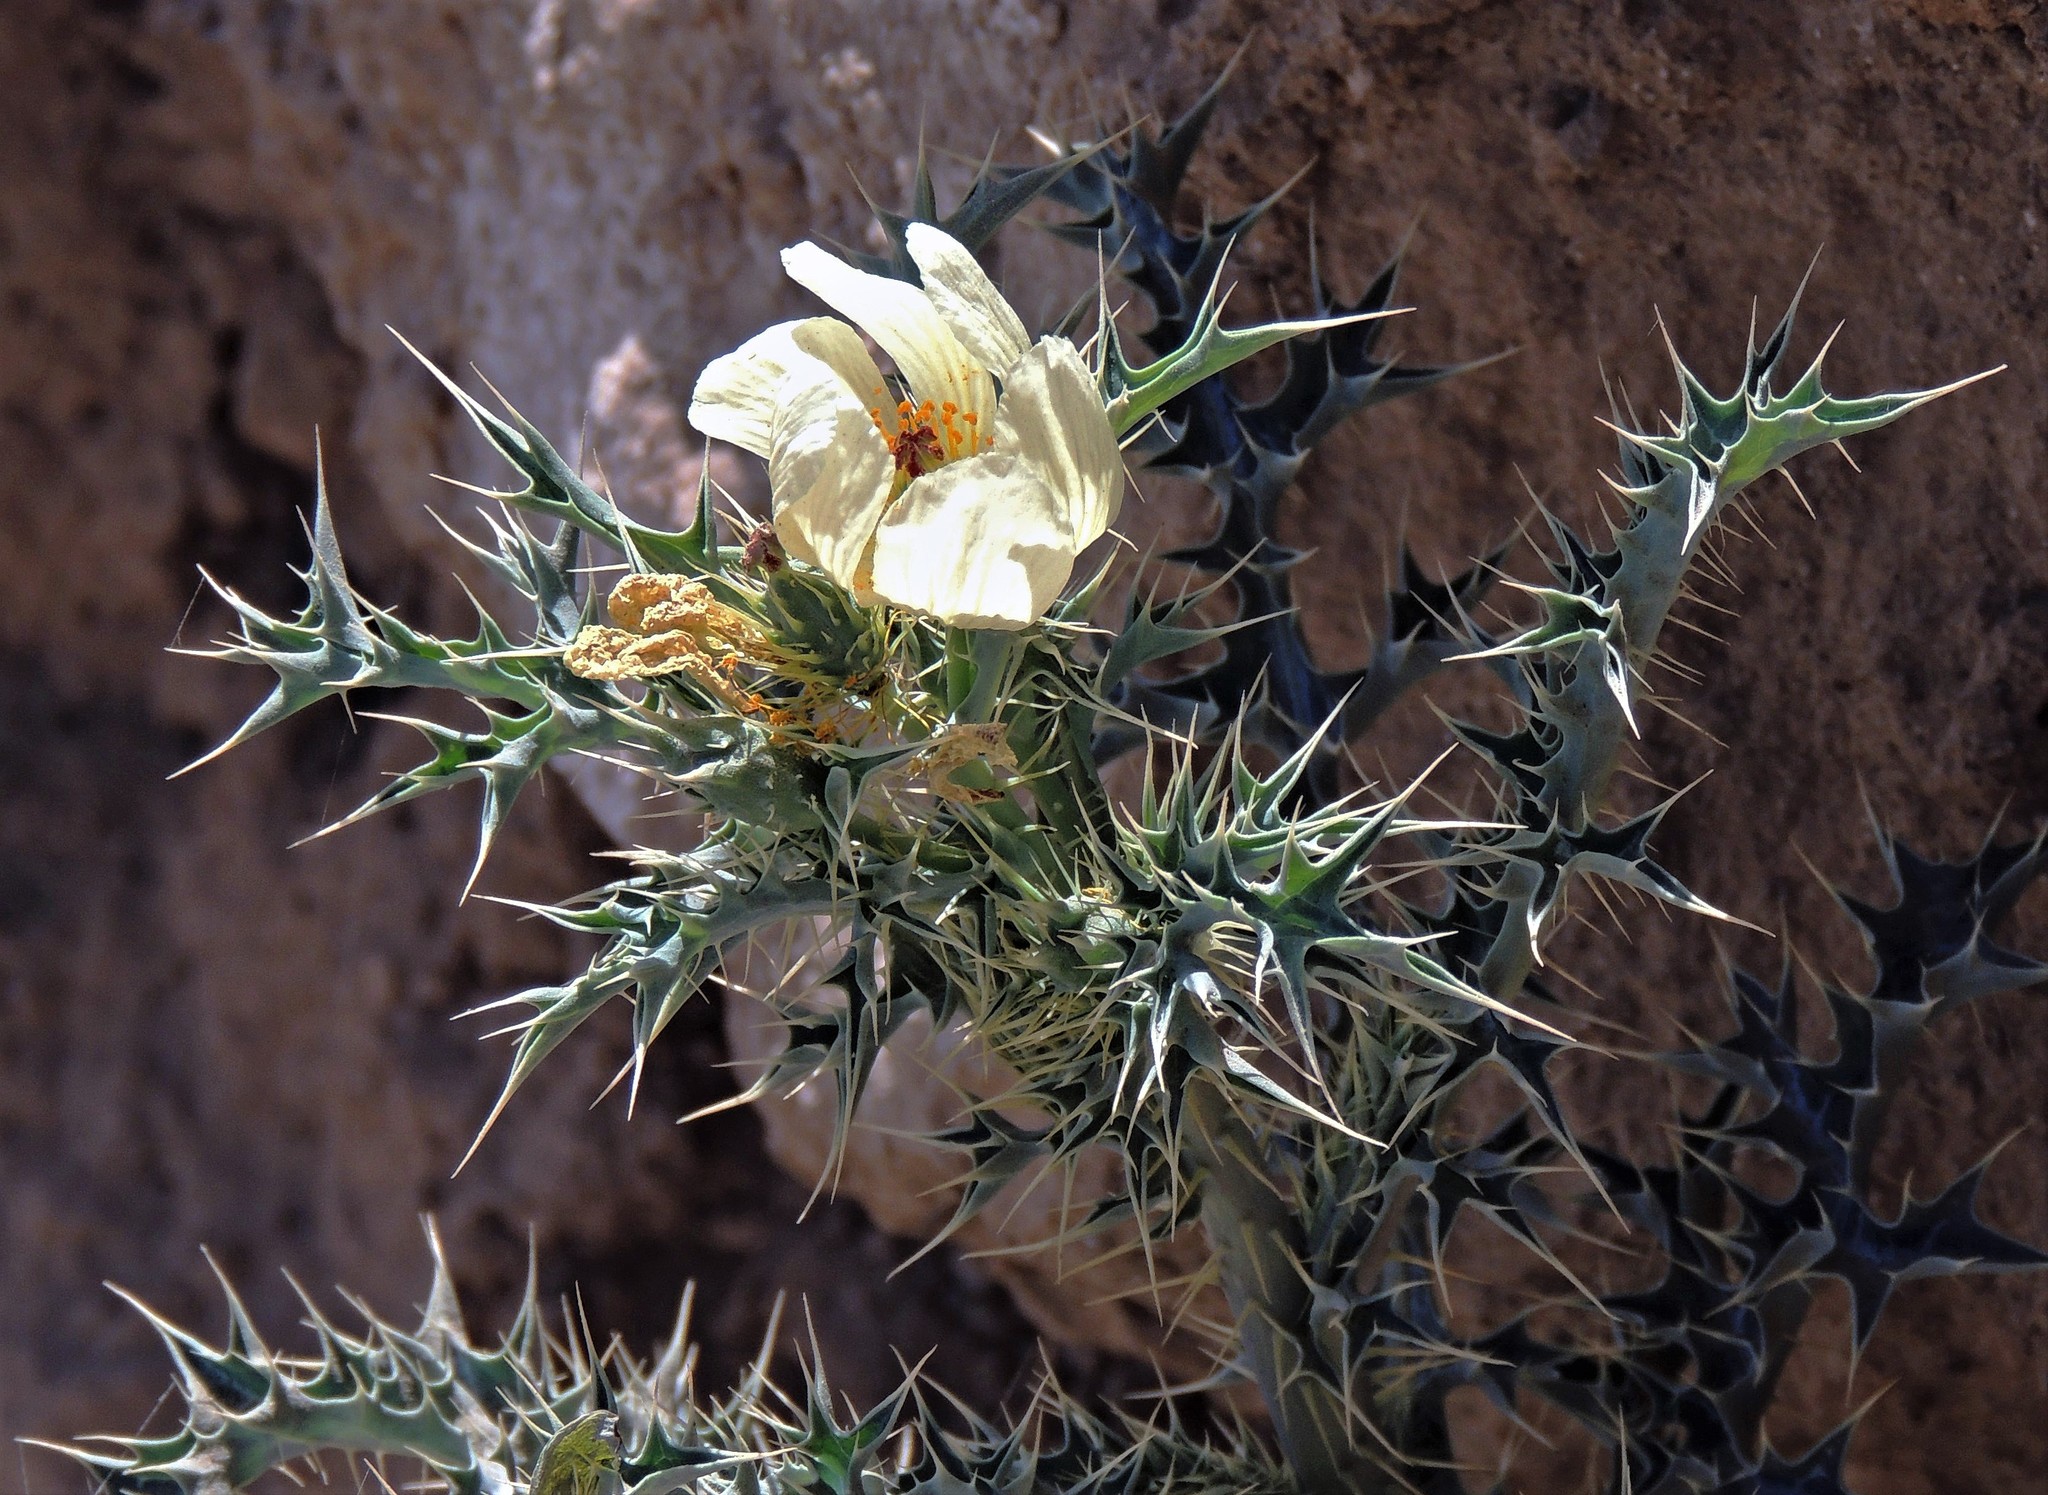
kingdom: Plantae
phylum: Tracheophyta
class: Magnoliopsida
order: Ranunculales
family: Papaveraceae
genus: Argemone
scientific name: Argemone subfusiformis
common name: American-poppy
